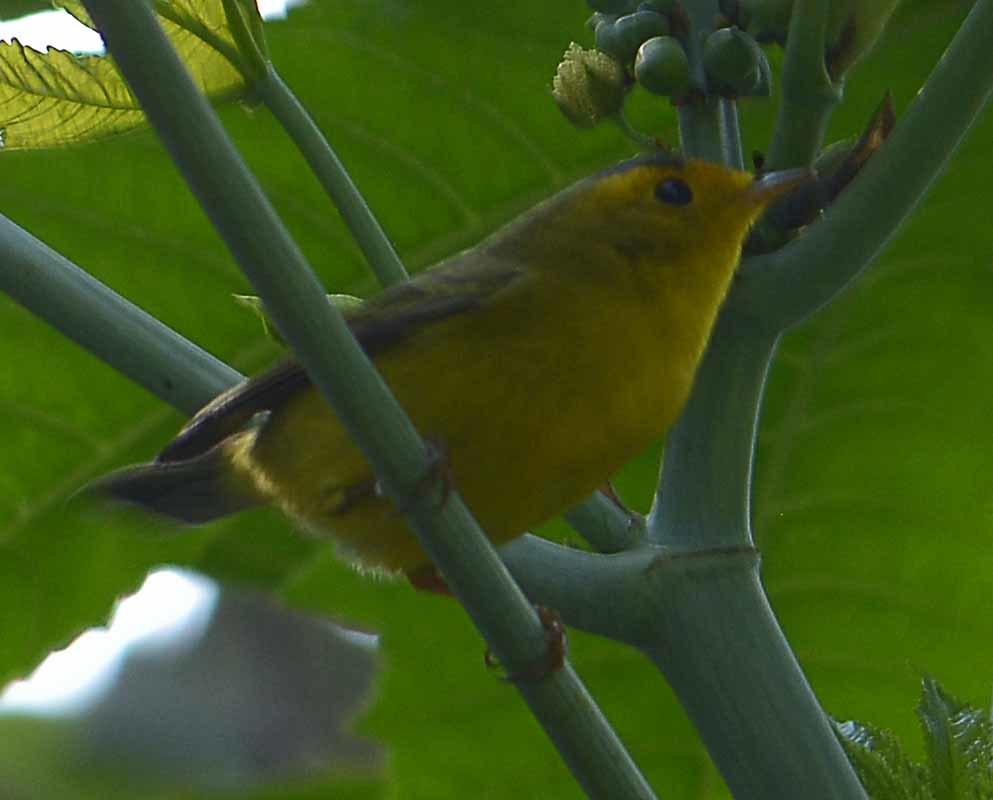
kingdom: Animalia
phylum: Chordata
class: Aves
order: Passeriformes
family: Parulidae
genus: Cardellina
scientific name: Cardellina pusilla
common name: Wilson's warbler
